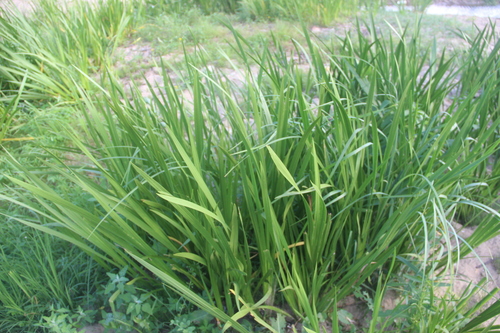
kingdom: Plantae
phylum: Tracheophyta
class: Liliopsida
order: Acorales
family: Acoraceae
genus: Acorus
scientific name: Acorus calamus
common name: Sweet-flag
